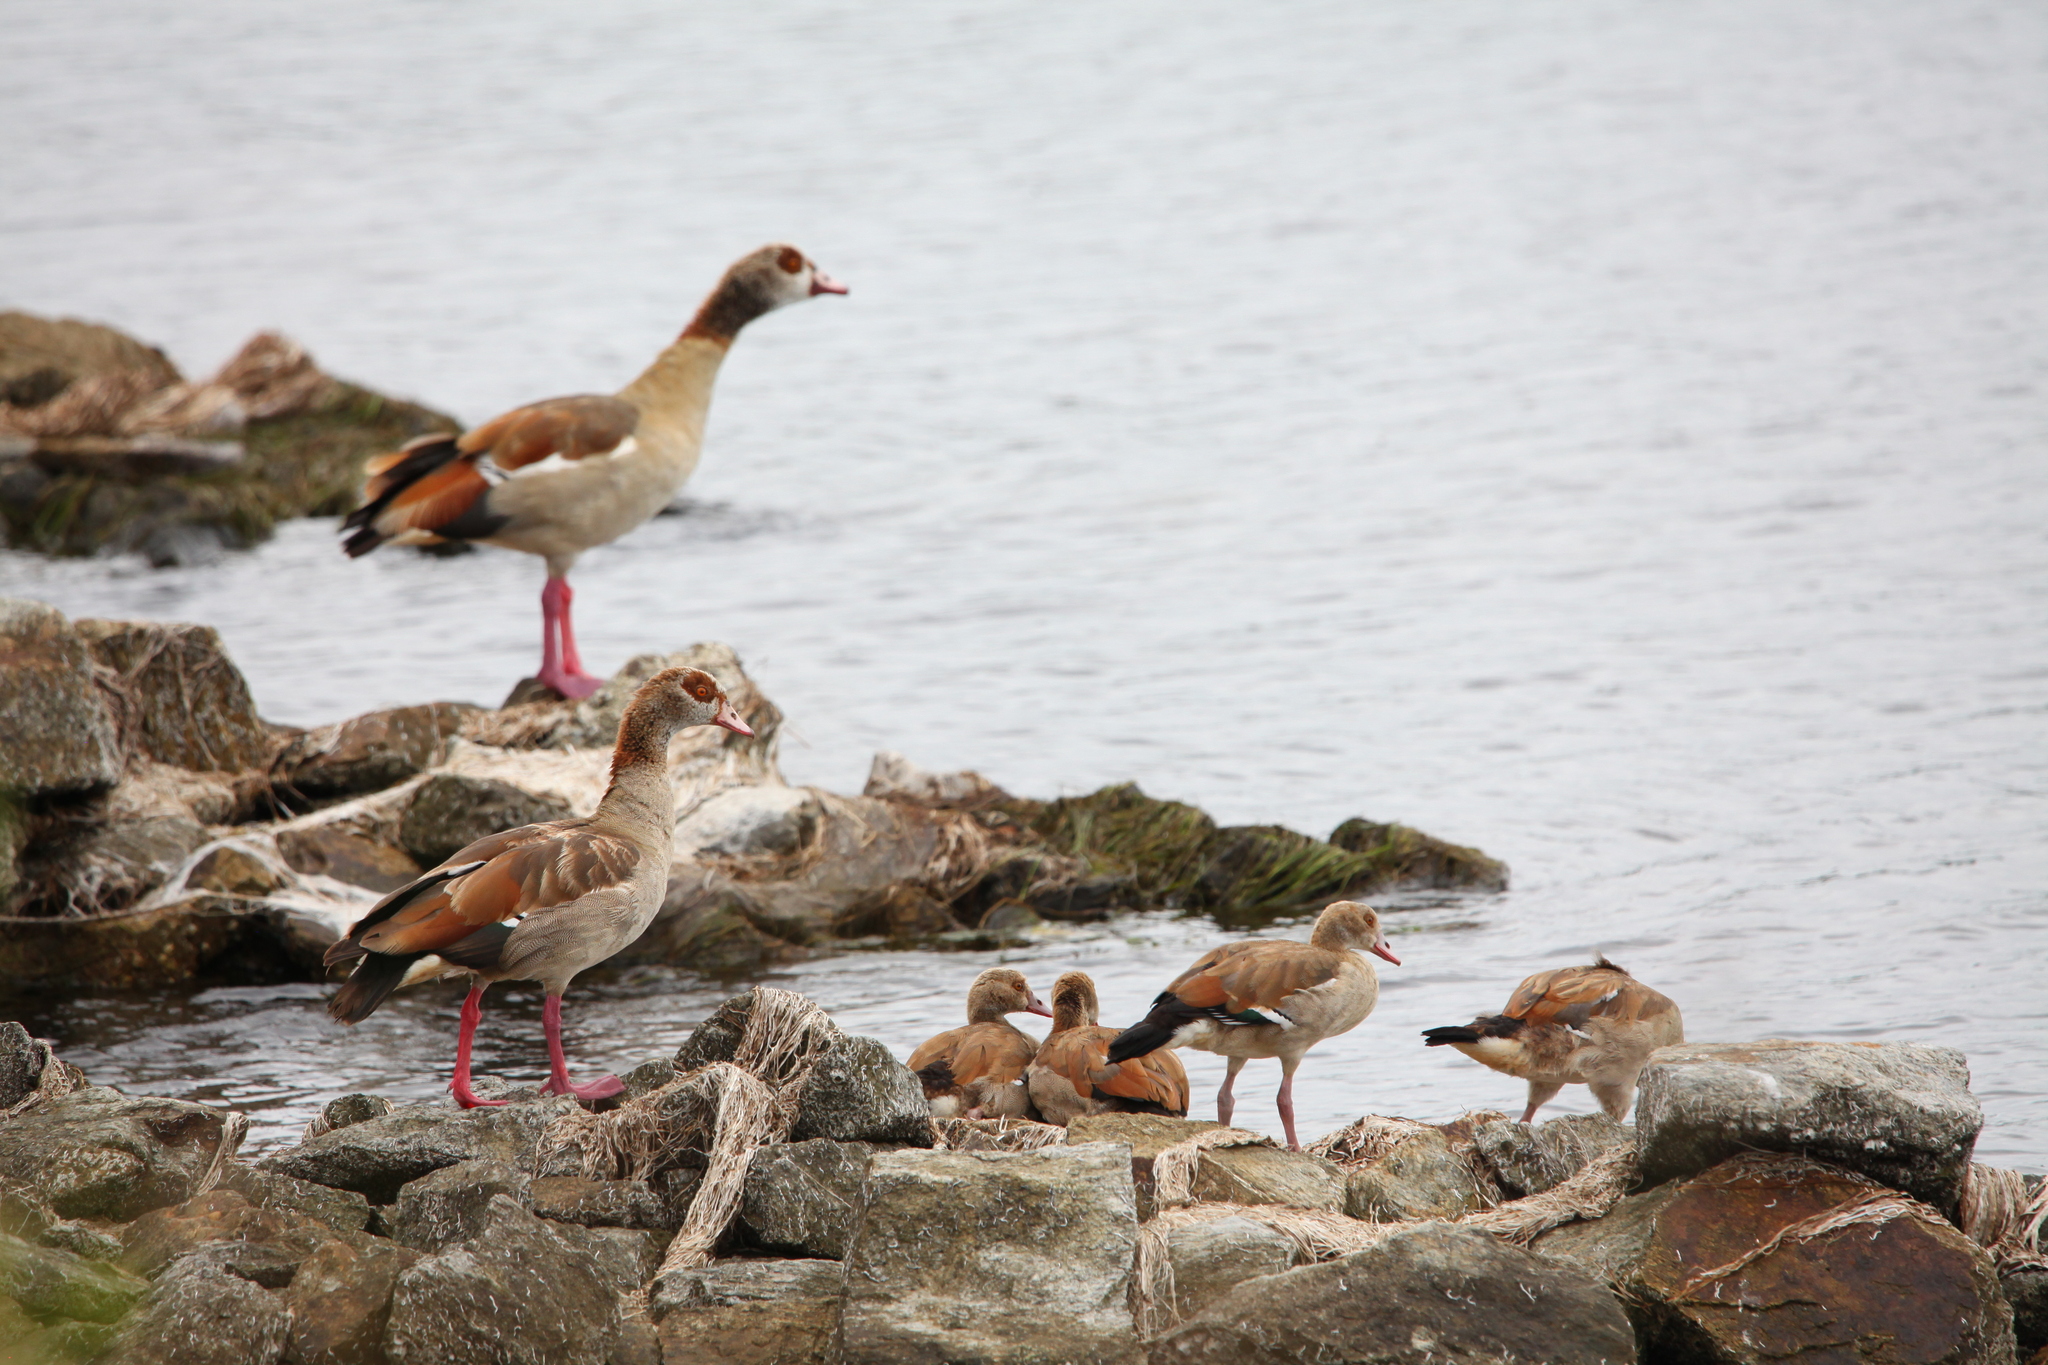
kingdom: Animalia
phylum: Chordata
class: Aves
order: Anseriformes
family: Anatidae
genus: Alopochen
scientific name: Alopochen aegyptiaca
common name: Egyptian goose
